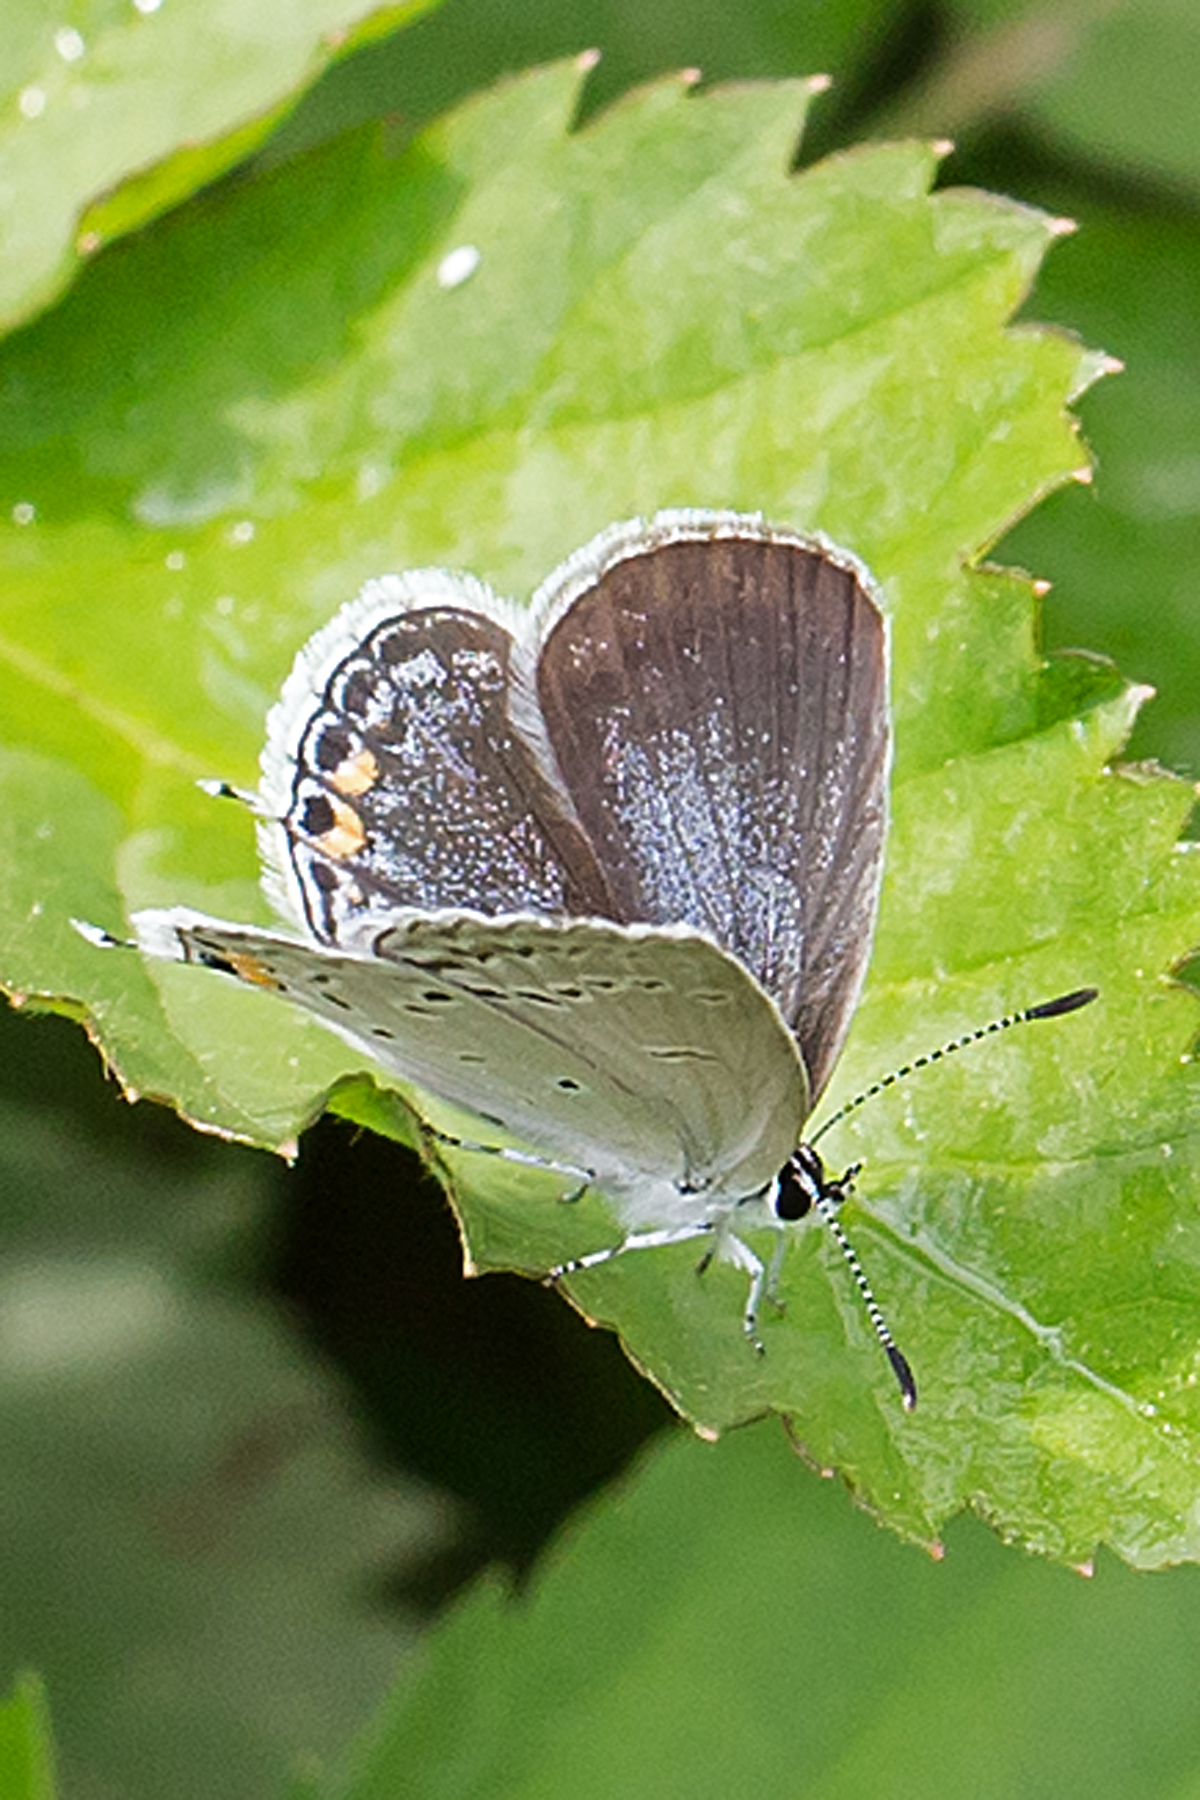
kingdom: Animalia
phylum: Arthropoda
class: Insecta
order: Lepidoptera
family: Lycaenidae
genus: Elkalyce
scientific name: Elkalyce comyntas
